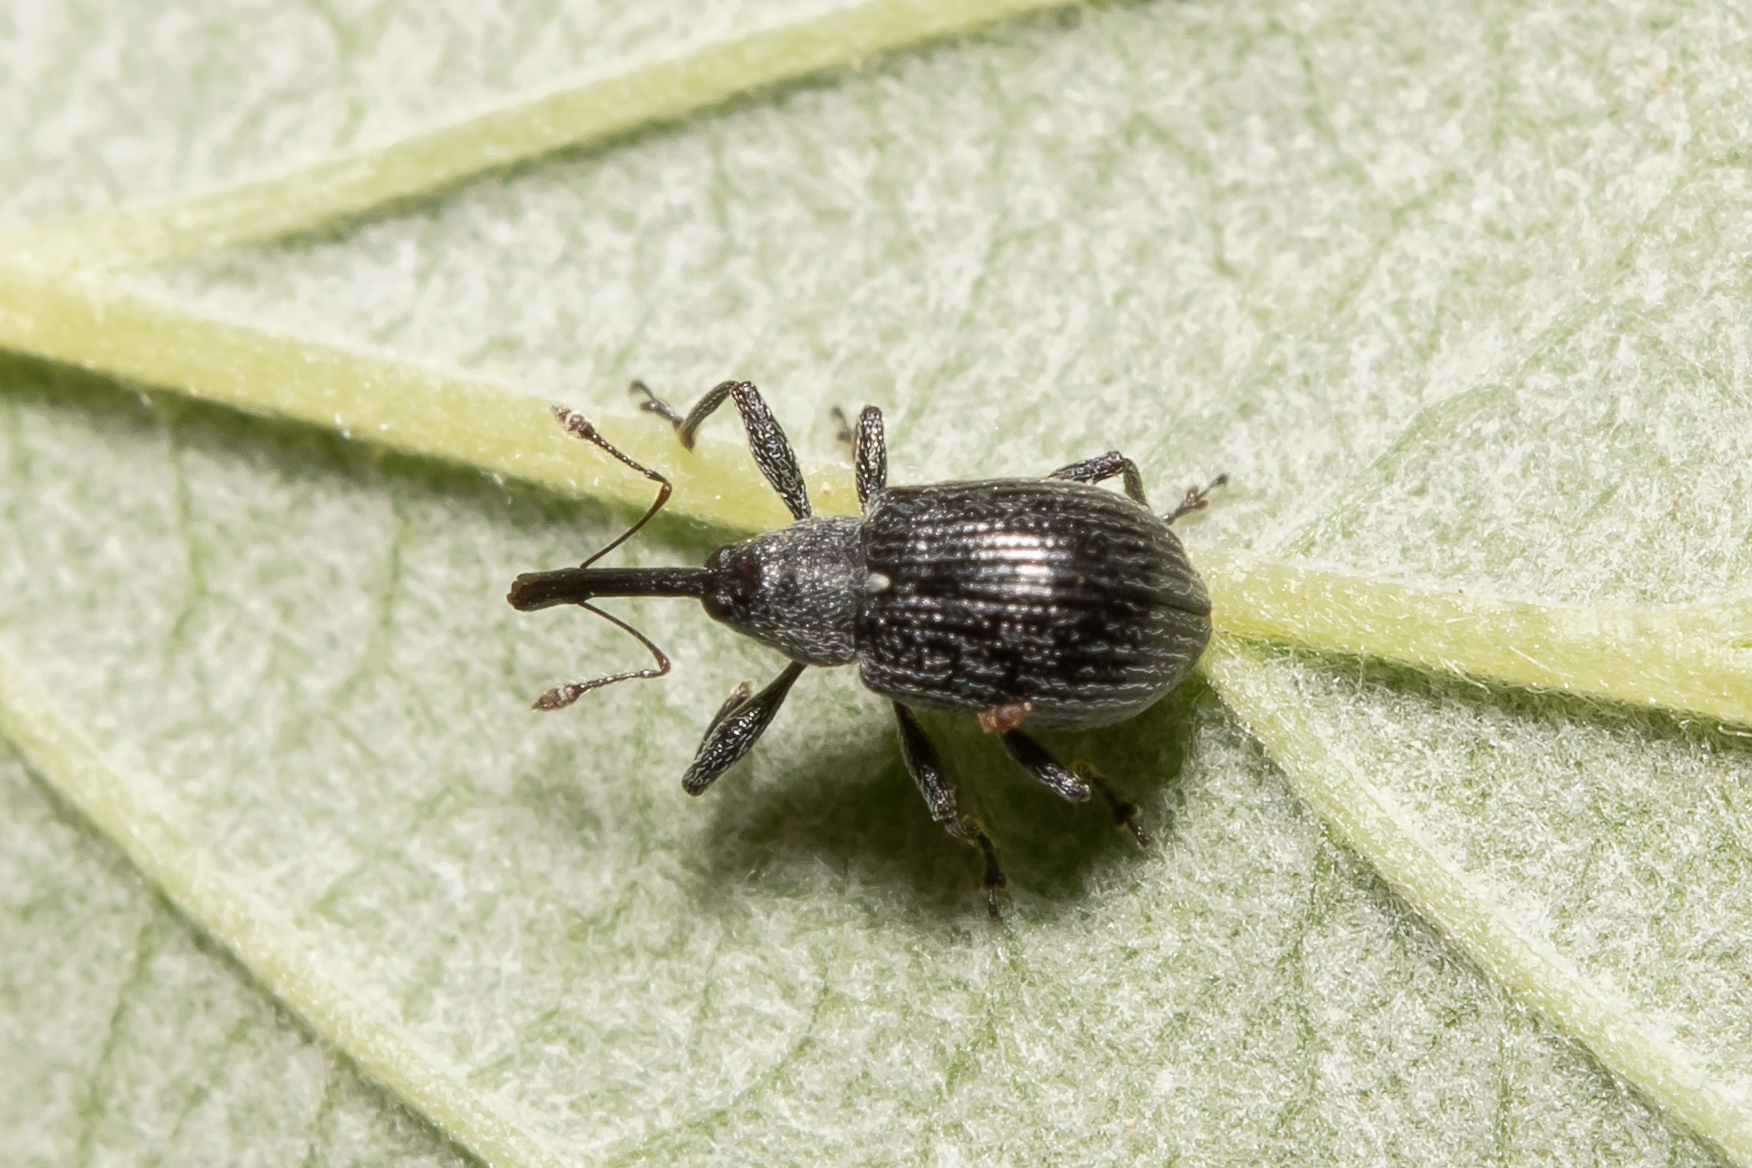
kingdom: Animalia
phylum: Arthropoda
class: Insecta
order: Coleoptera
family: Curculionidae
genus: Anthonomus
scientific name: Anthonomus rubi
